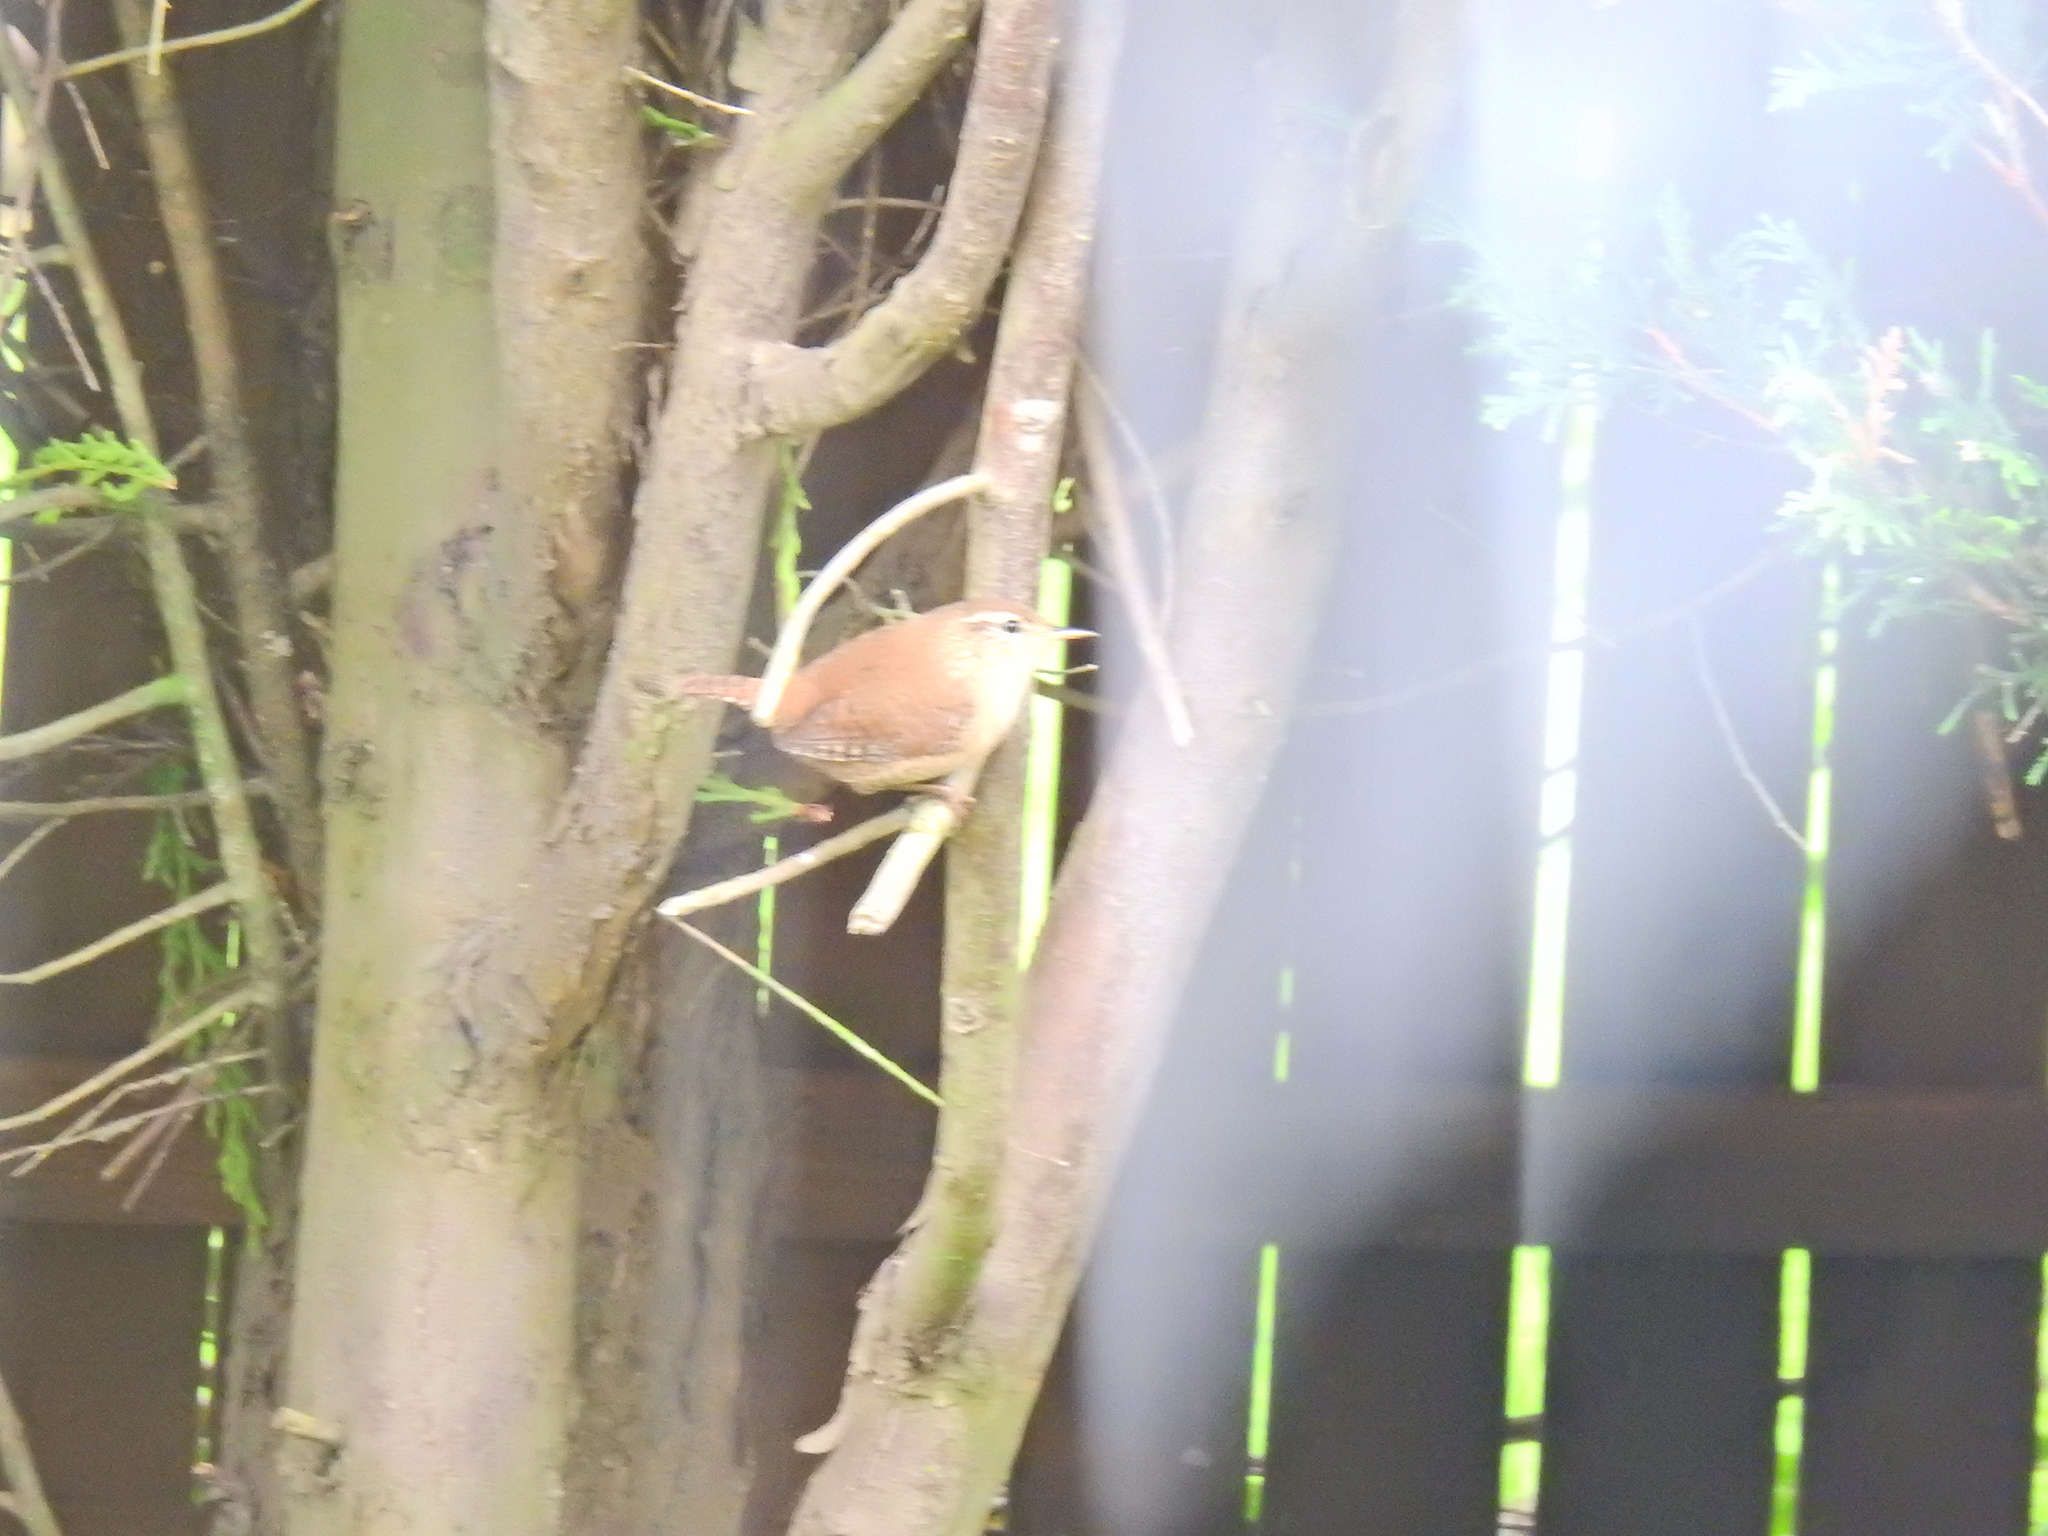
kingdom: Animalia
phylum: Chordata
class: Aves
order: Passeriformes
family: Troglodytidae
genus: Troglodytes
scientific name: Troglodytes troglodytes
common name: Eurasian wren
